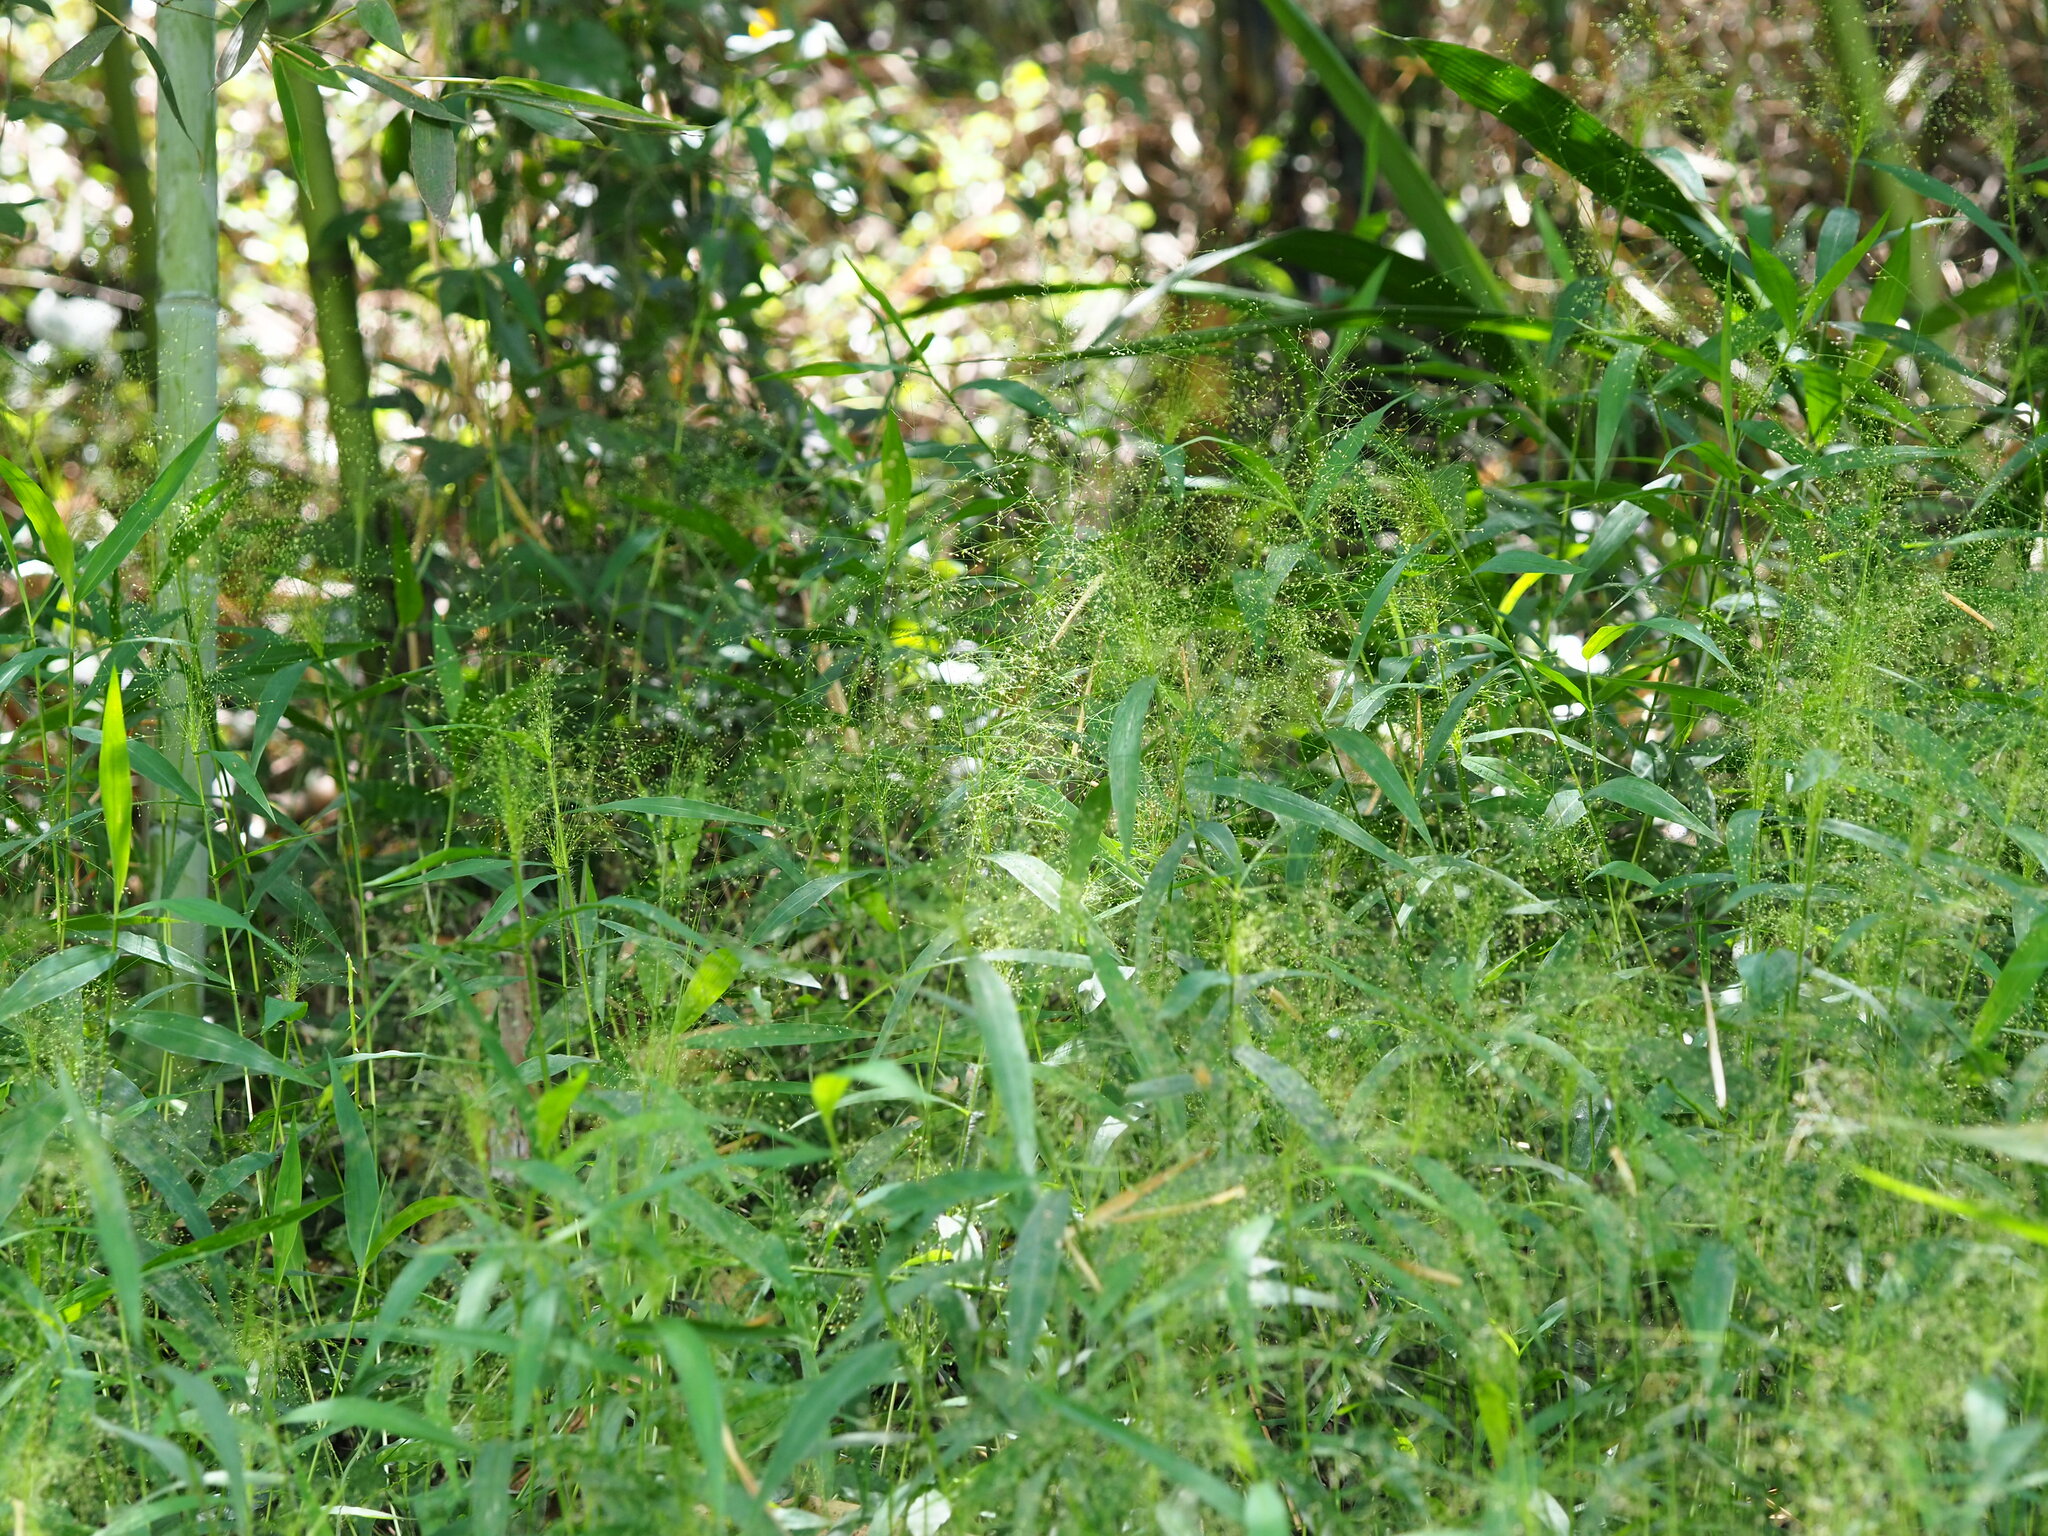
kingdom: Plantae
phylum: Tracheophyta
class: Liliopsida
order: Poales
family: Poaceae
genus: Cyrtococcum
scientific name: Cyrtococcum accrescens
